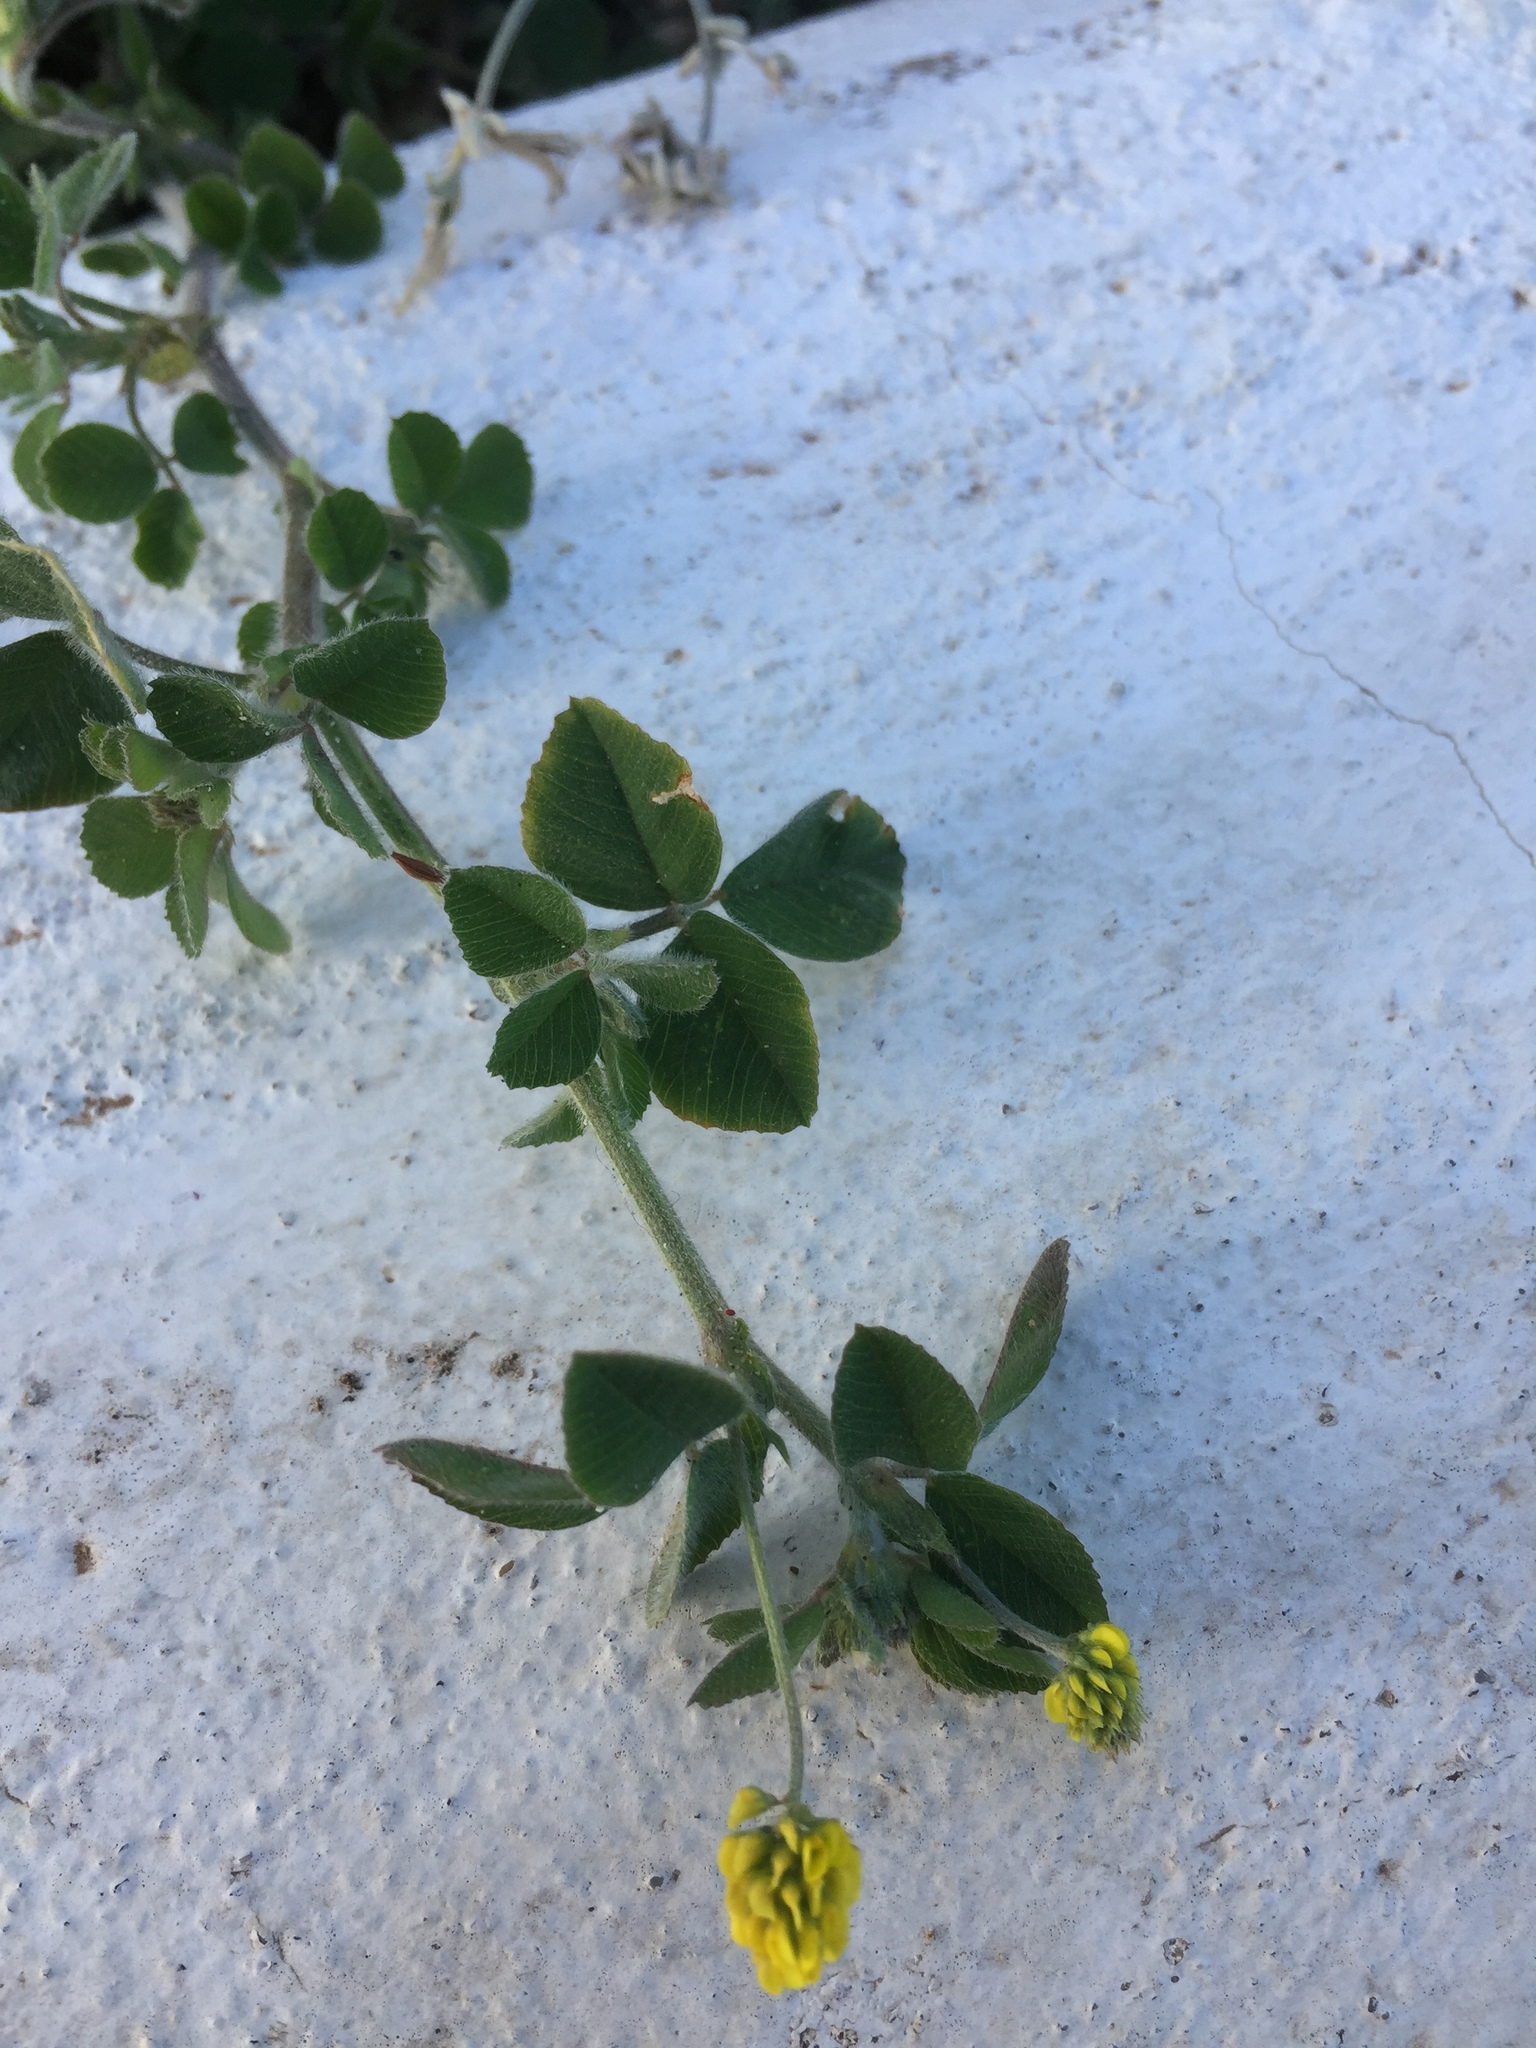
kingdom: Plantae
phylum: Tracheophyta
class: Magnoliopsida
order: Fabales
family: Fabaceae
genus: Medicago
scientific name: Medicago lupulina
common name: Black medick
